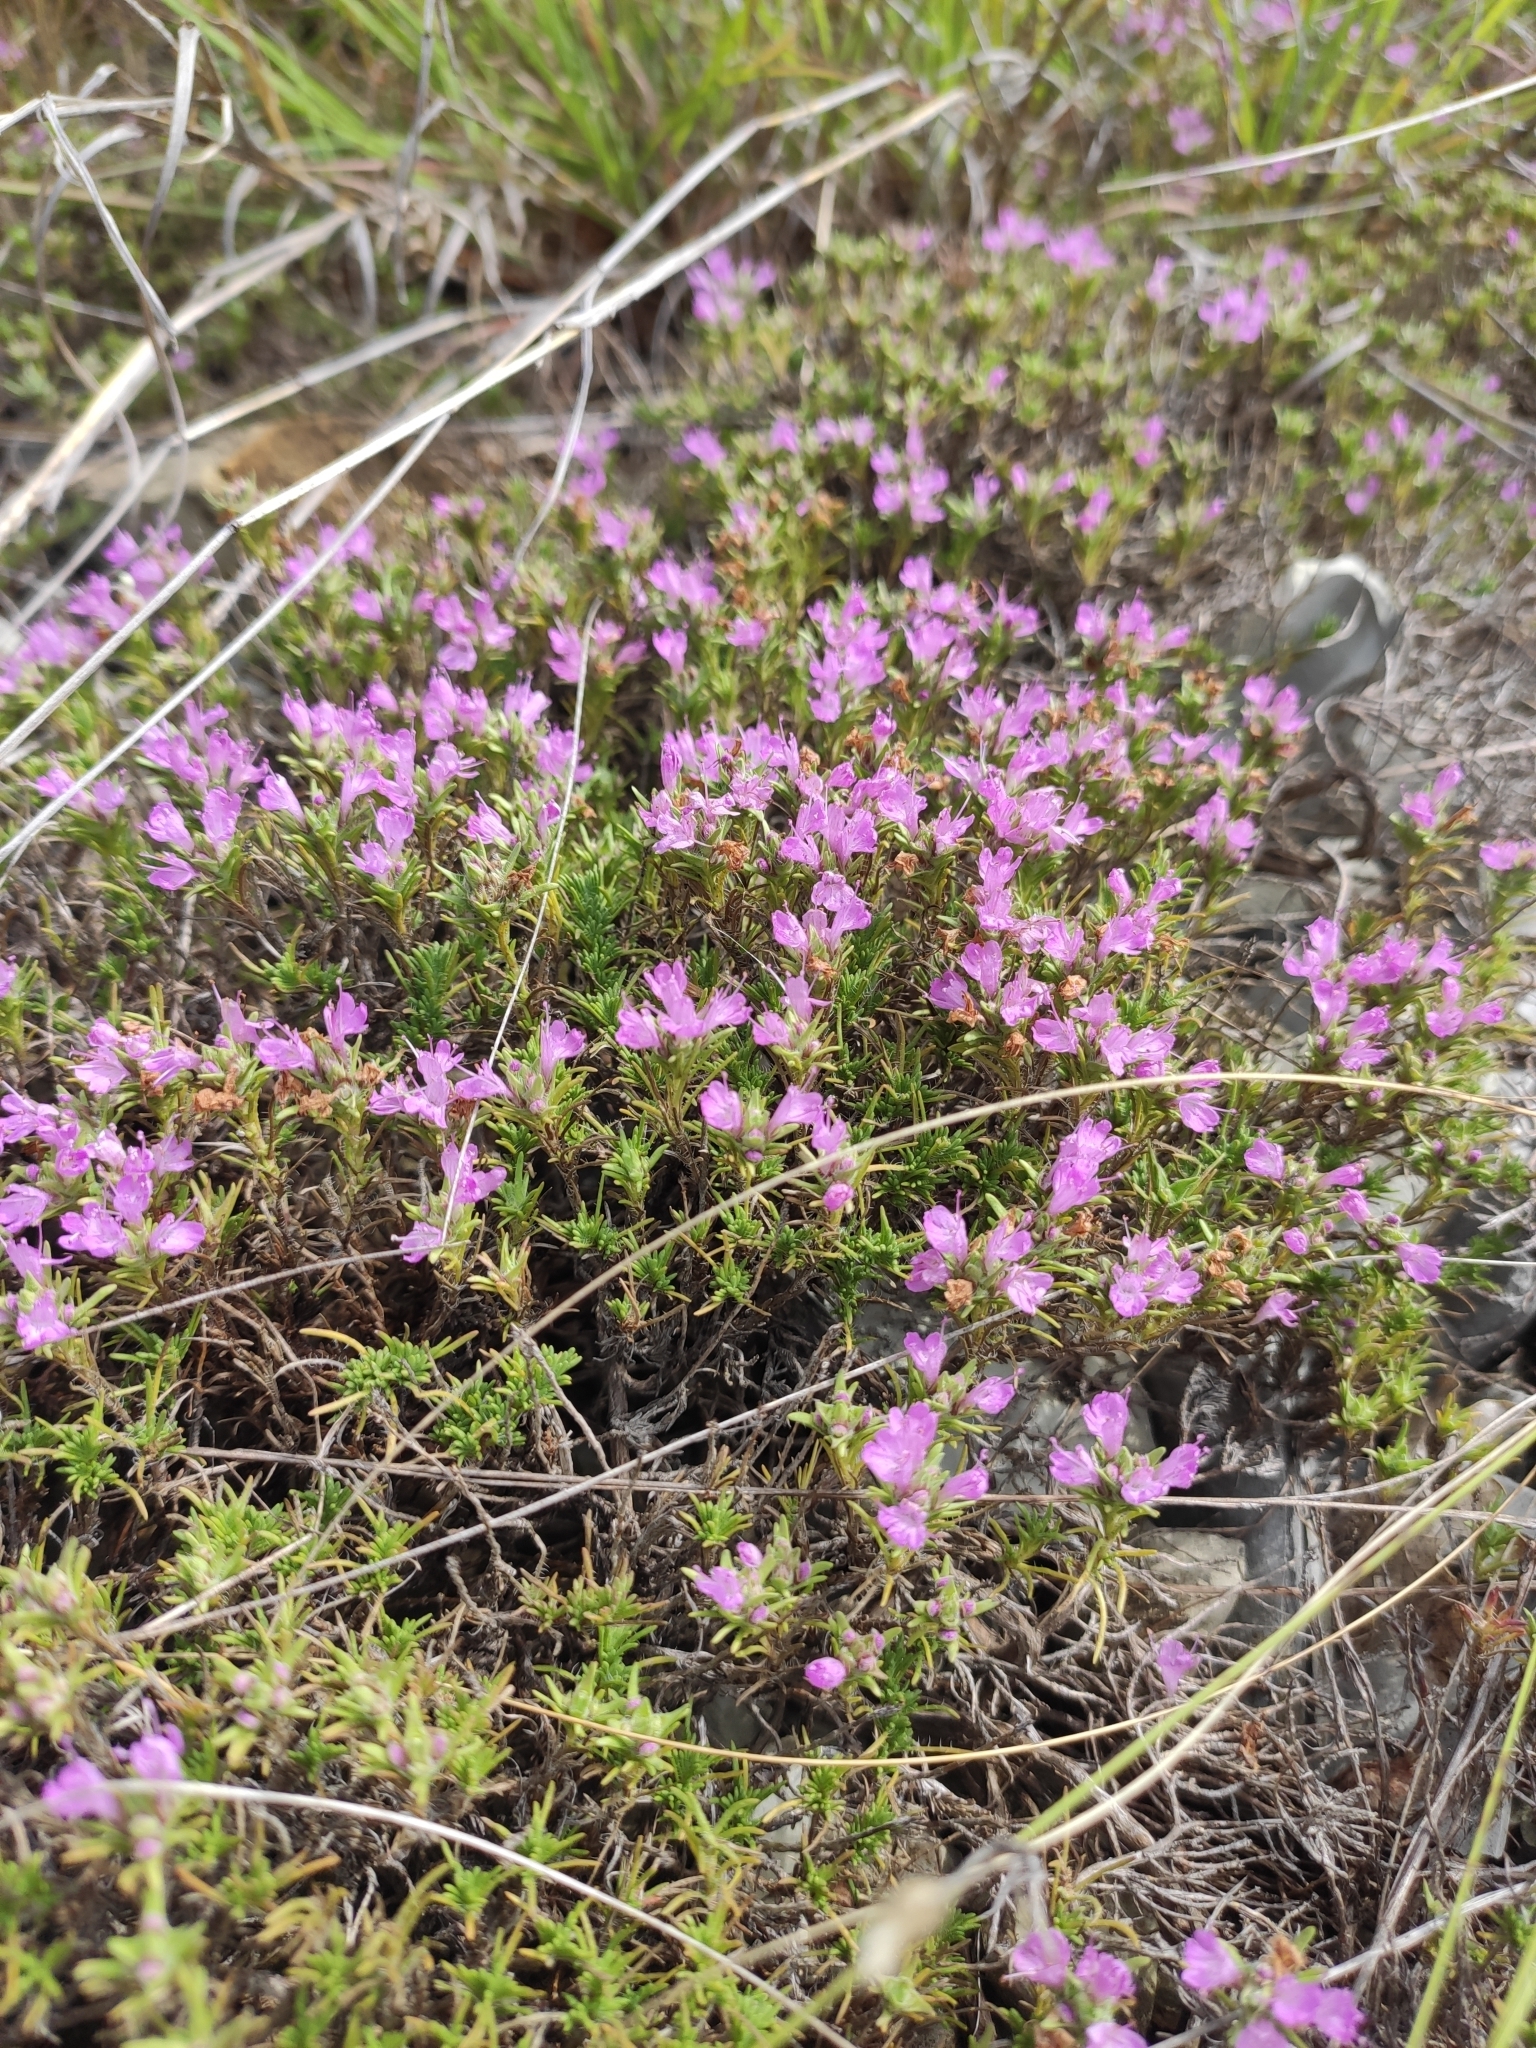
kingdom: Plantae
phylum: Tracheophyta
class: Magnoliopsida
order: Lamiales
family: Lamiaceae
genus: Thymus
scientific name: Thymus helendzhicus
